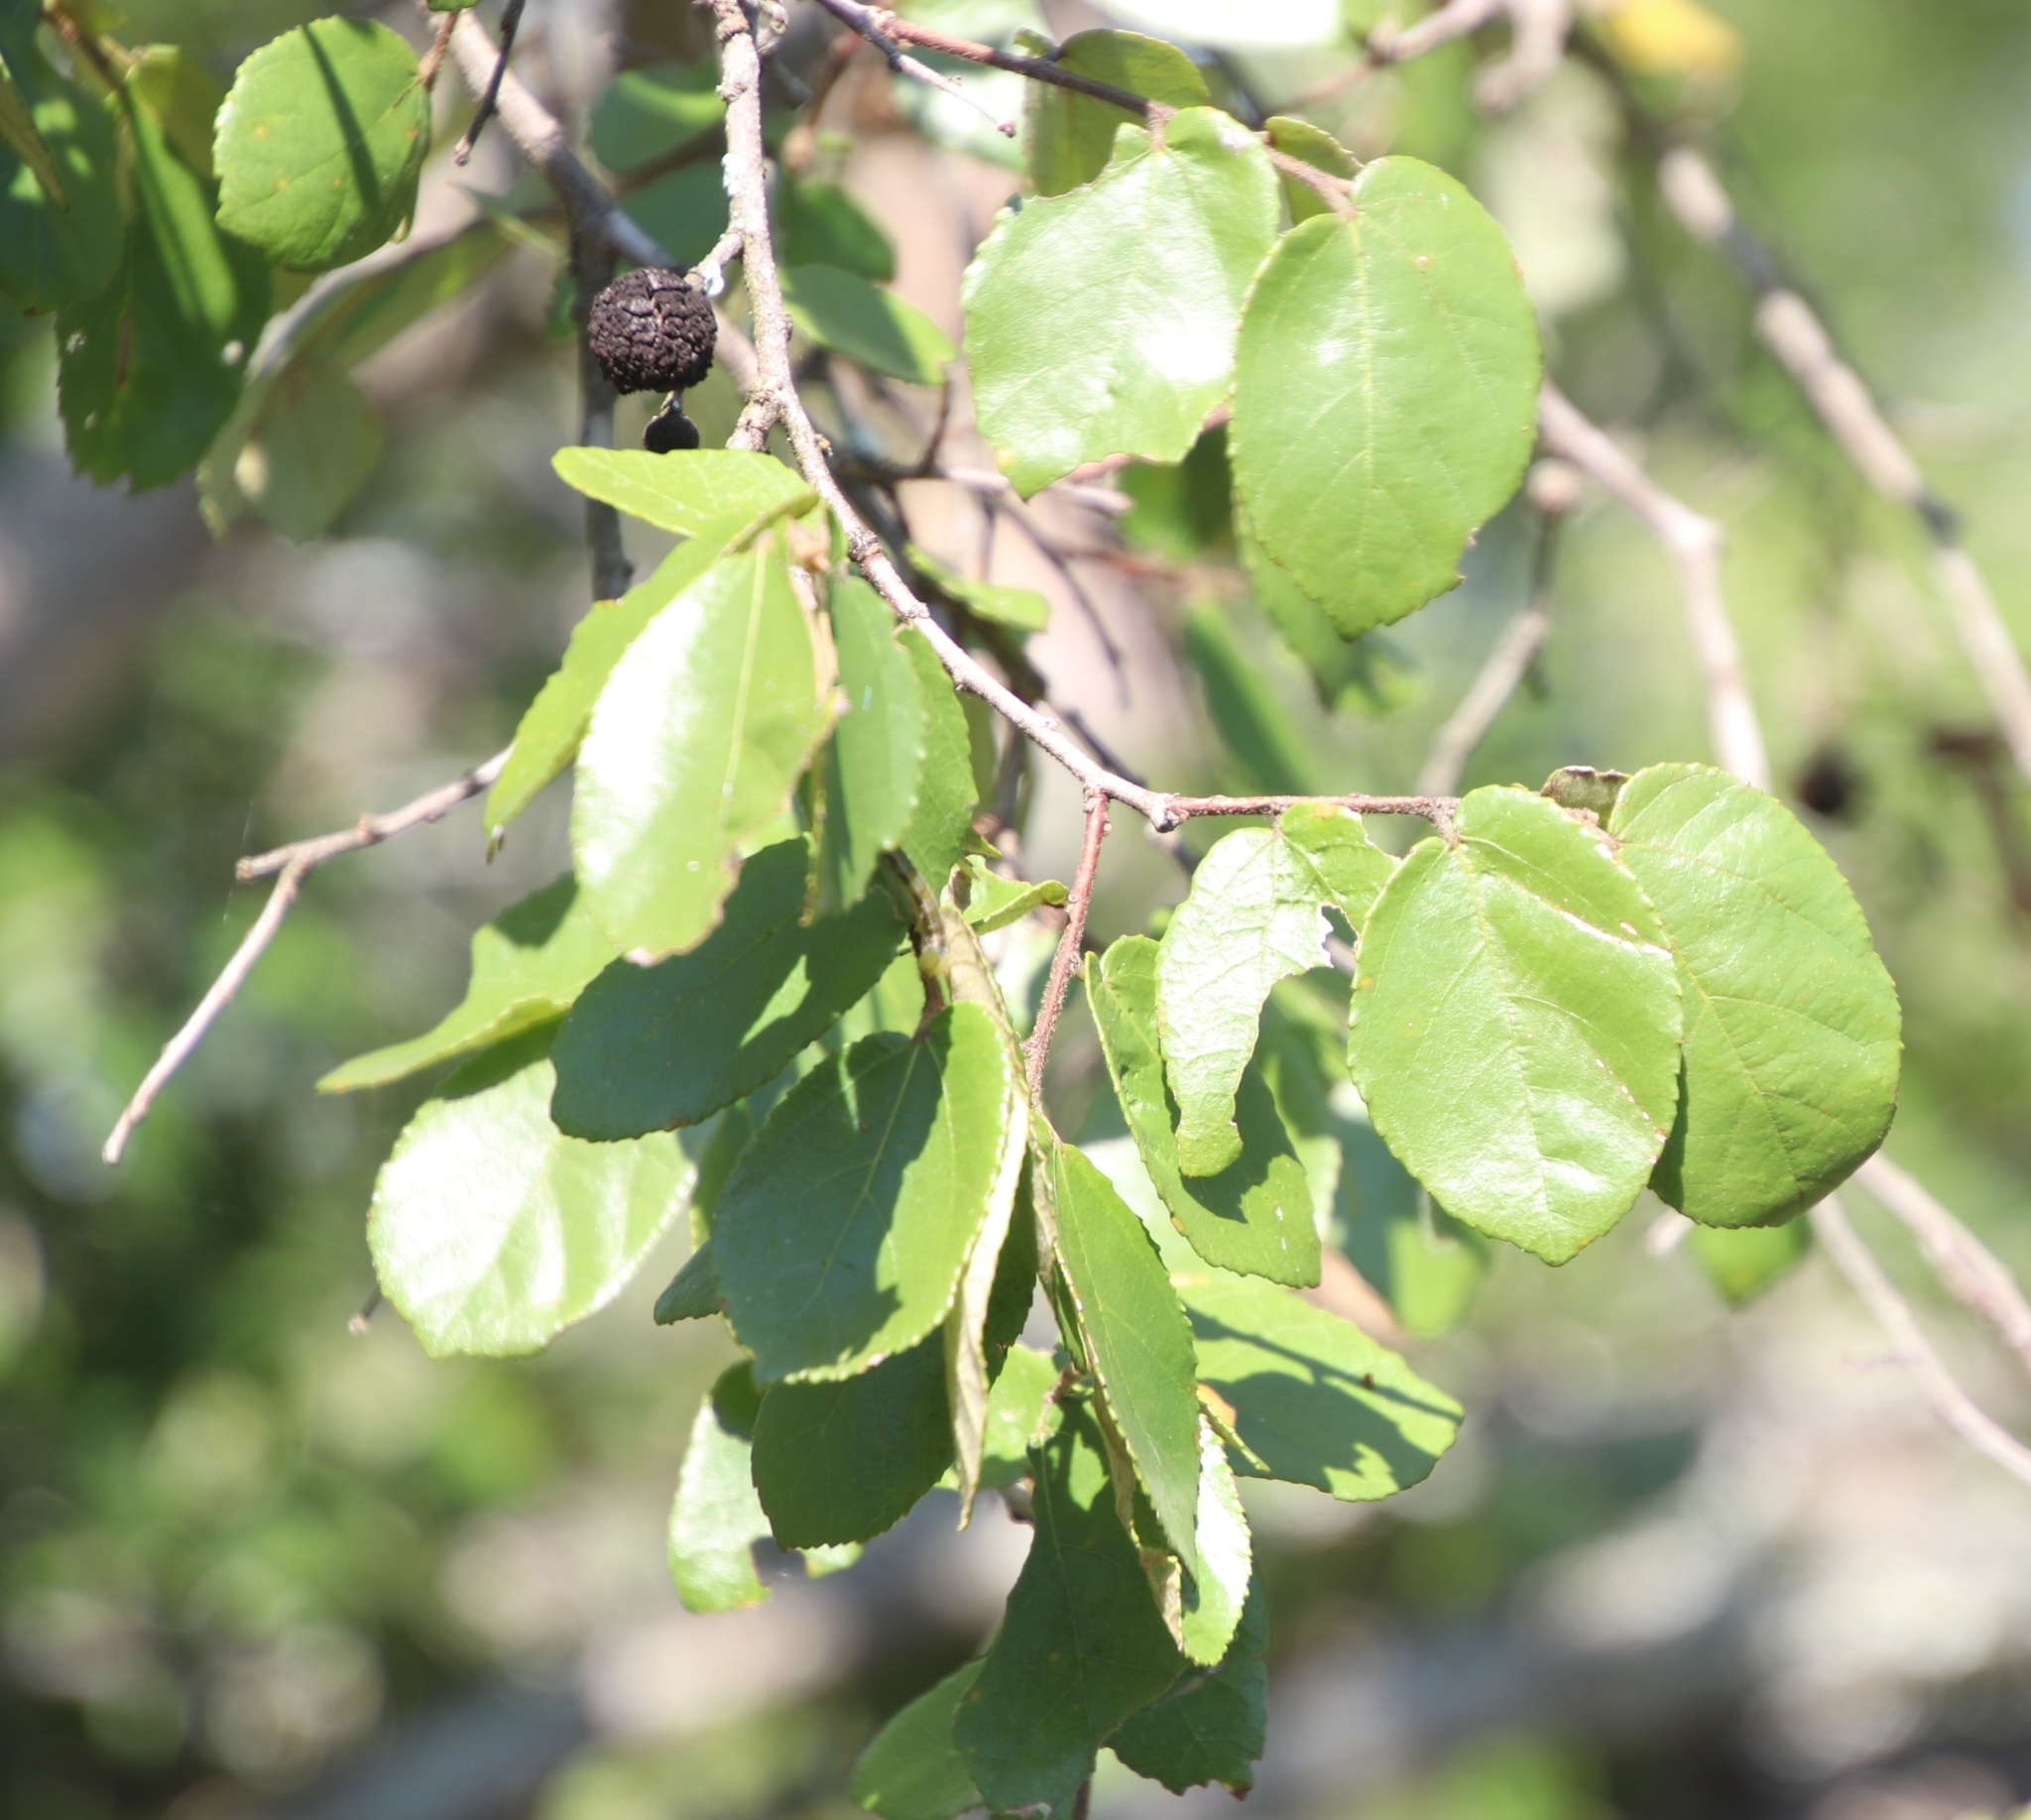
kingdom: Plantae
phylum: Tracheophyta
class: Magnoliopsida
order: Malvales
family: Malvaceae
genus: Grewia
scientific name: Grewia hexamita
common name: Giant raisin
